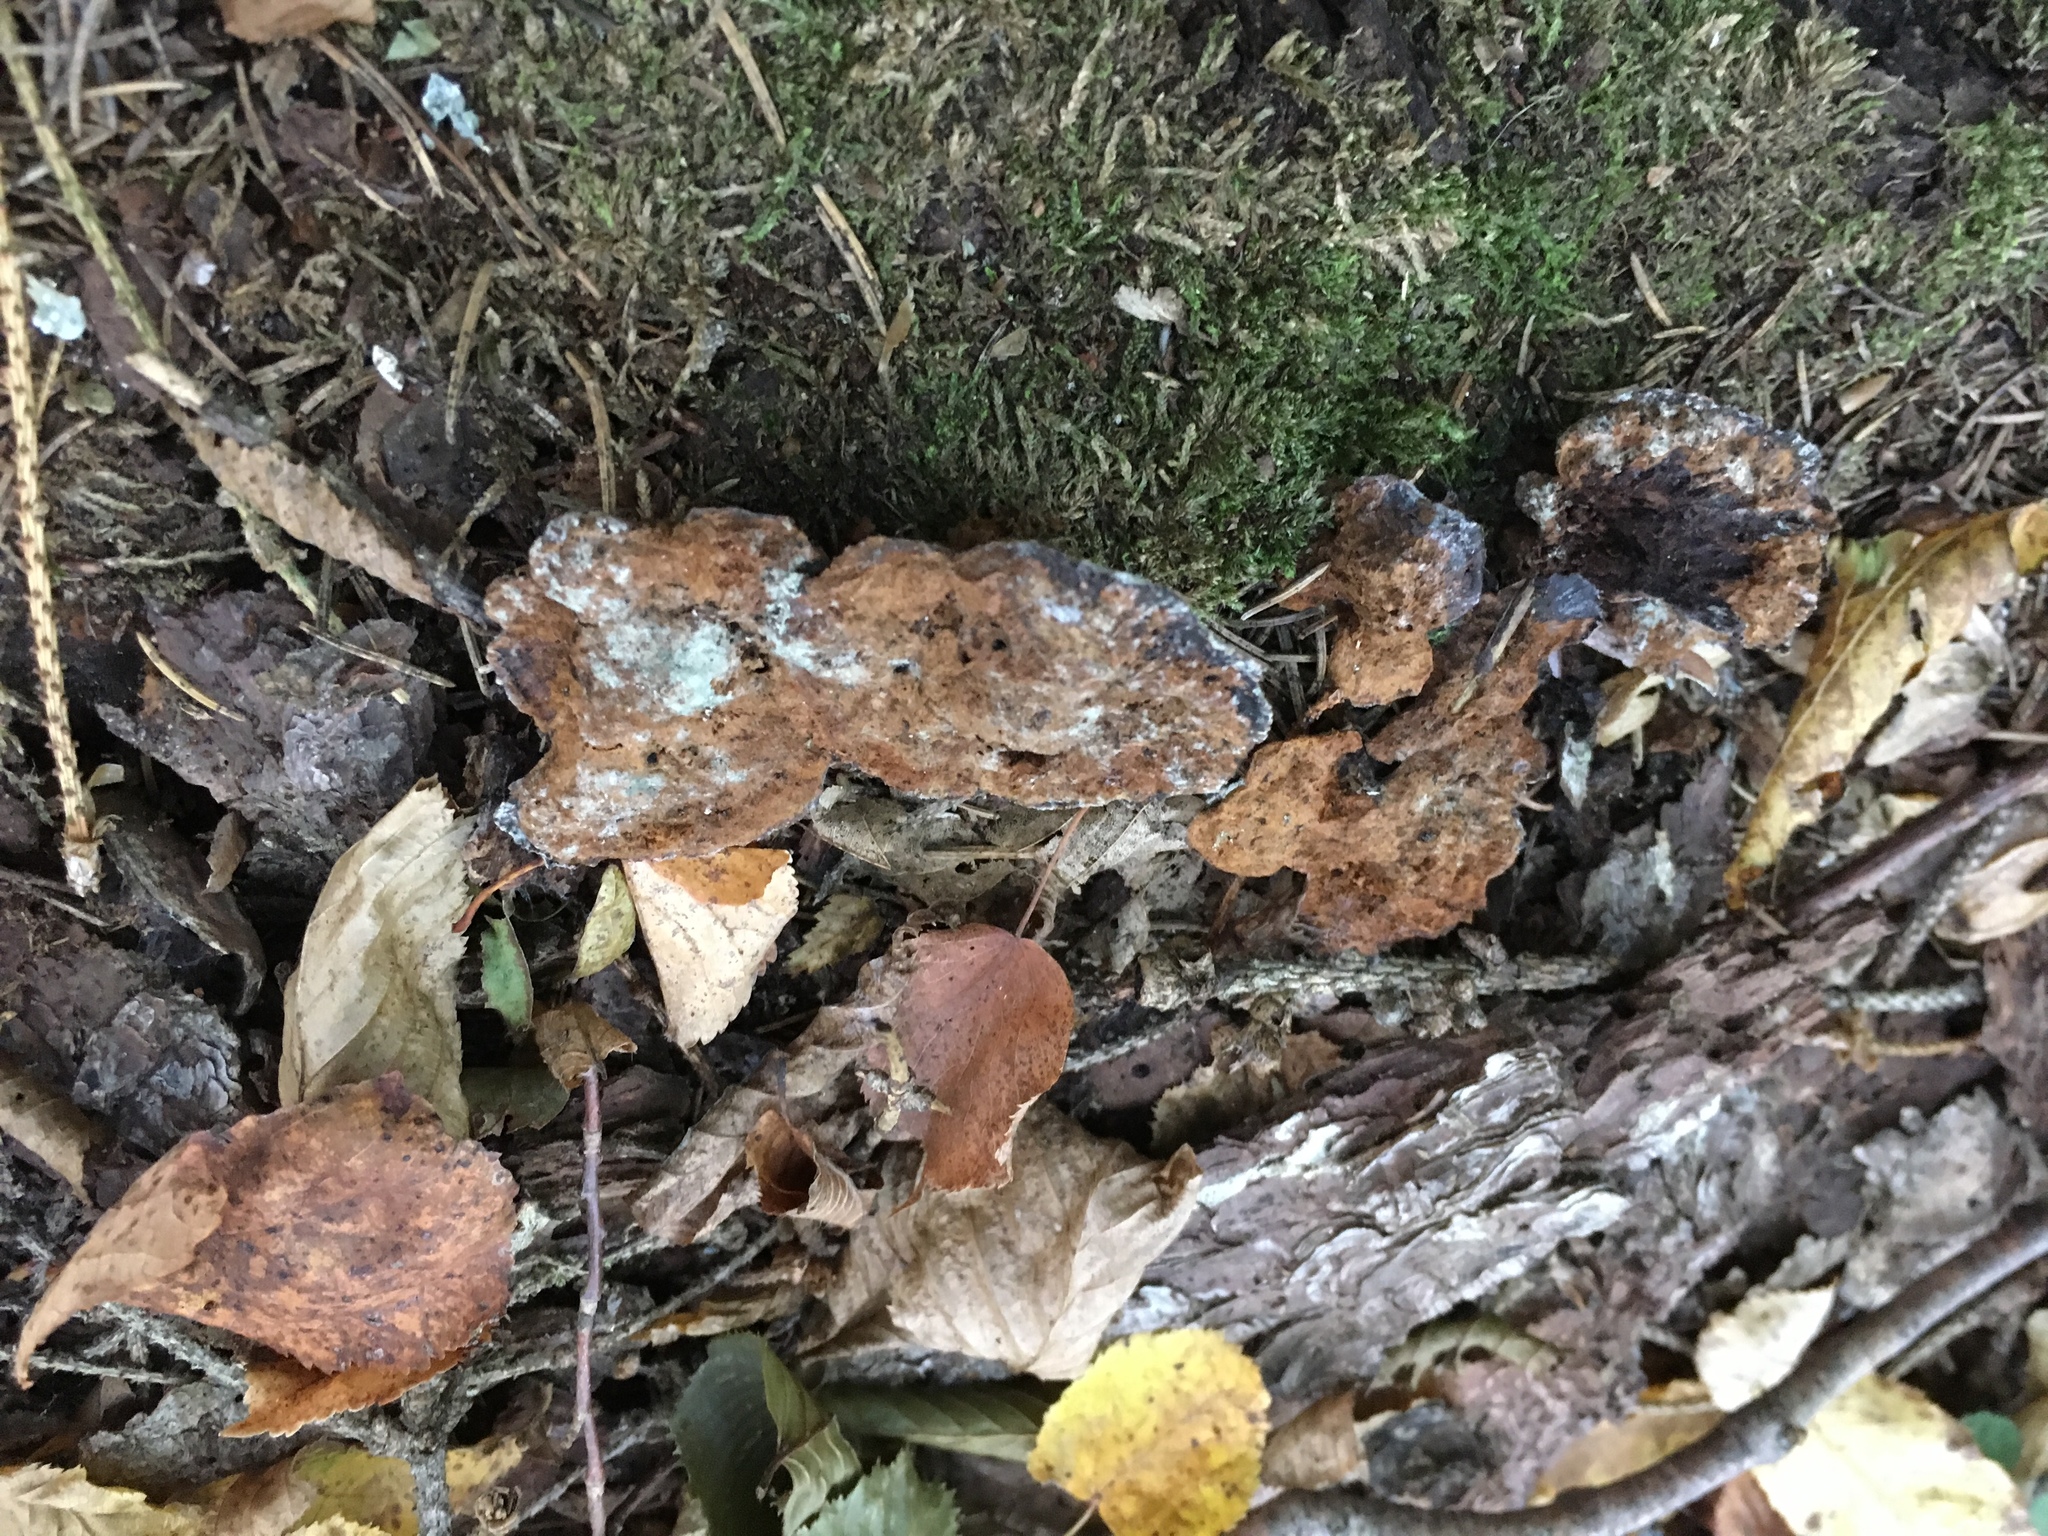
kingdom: Fungi
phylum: Basidiomycota
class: Agaricomycetes
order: Hymenochaetales
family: Hymenochaetaceae
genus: Onnia
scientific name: Onnia tomentosa
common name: Velvet rosette
